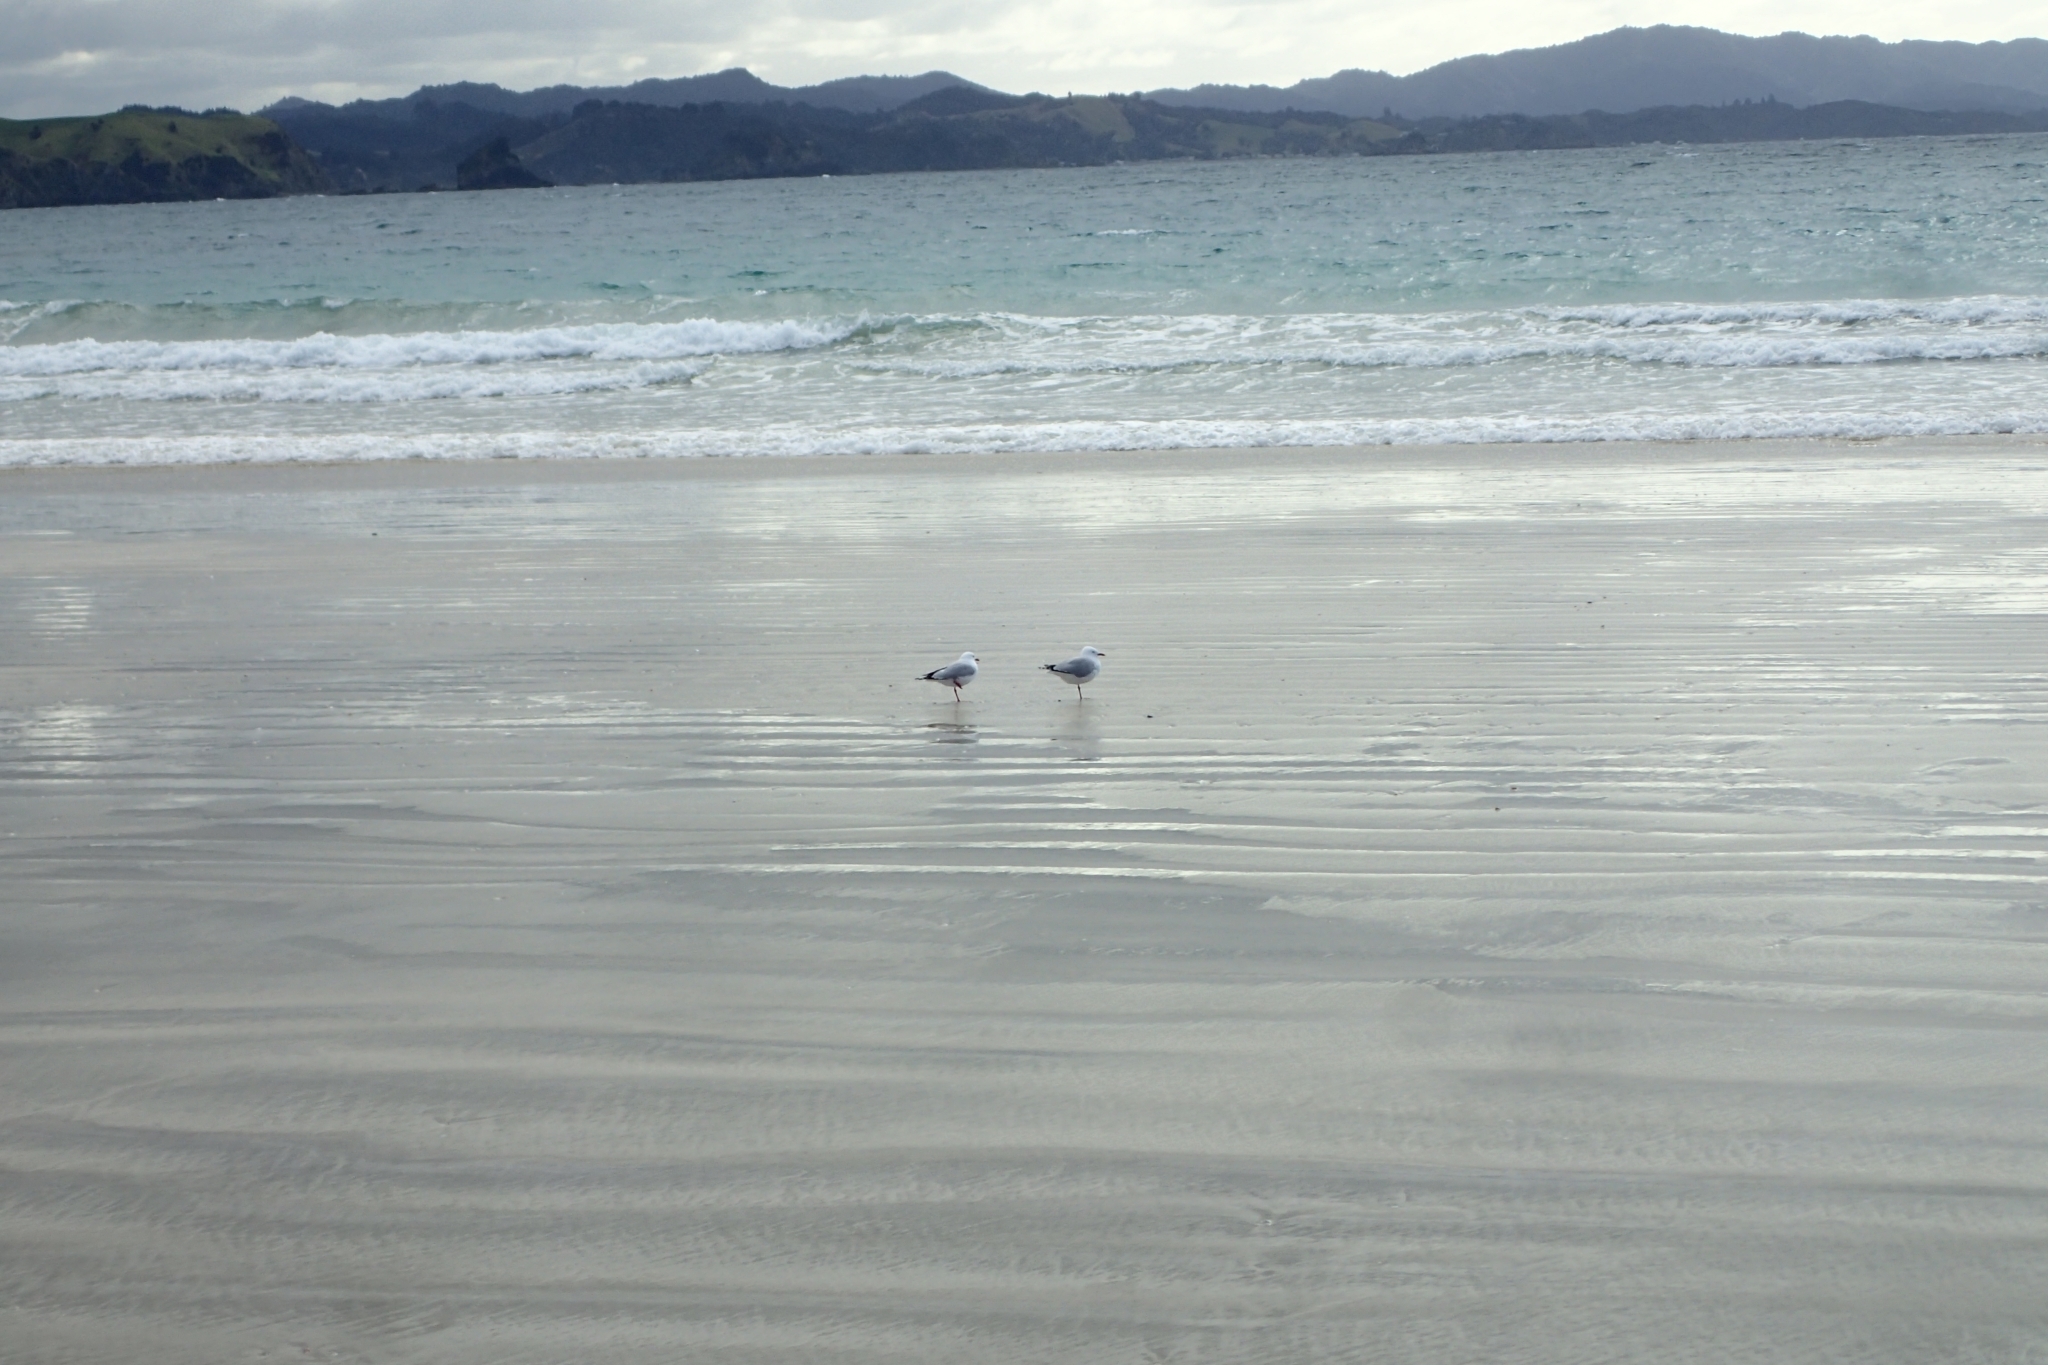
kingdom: Animalia
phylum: Chordata
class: Aves
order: Charadriiformes
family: Laridae
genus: Chroicocephalus
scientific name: Chroicocephalus novaehollandiae
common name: Silver gull
